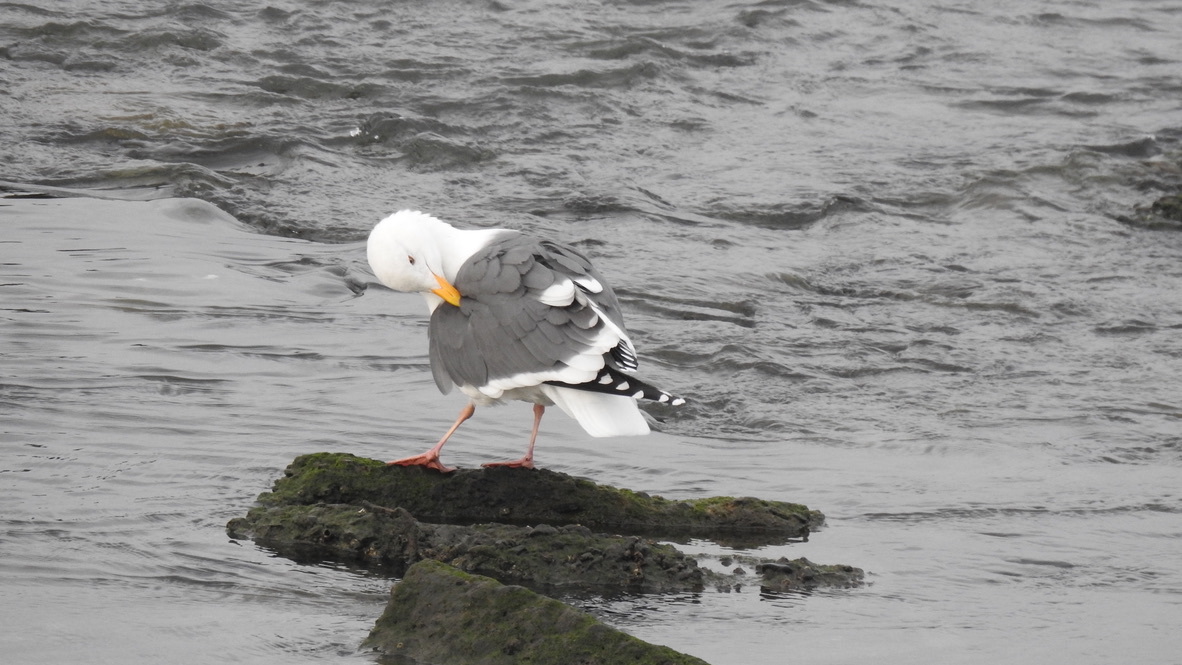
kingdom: Animalia
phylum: Chordata
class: Aves
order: Charadriiformes
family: Laridae
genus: Larus
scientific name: Larus occidentalis
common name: Western gull
